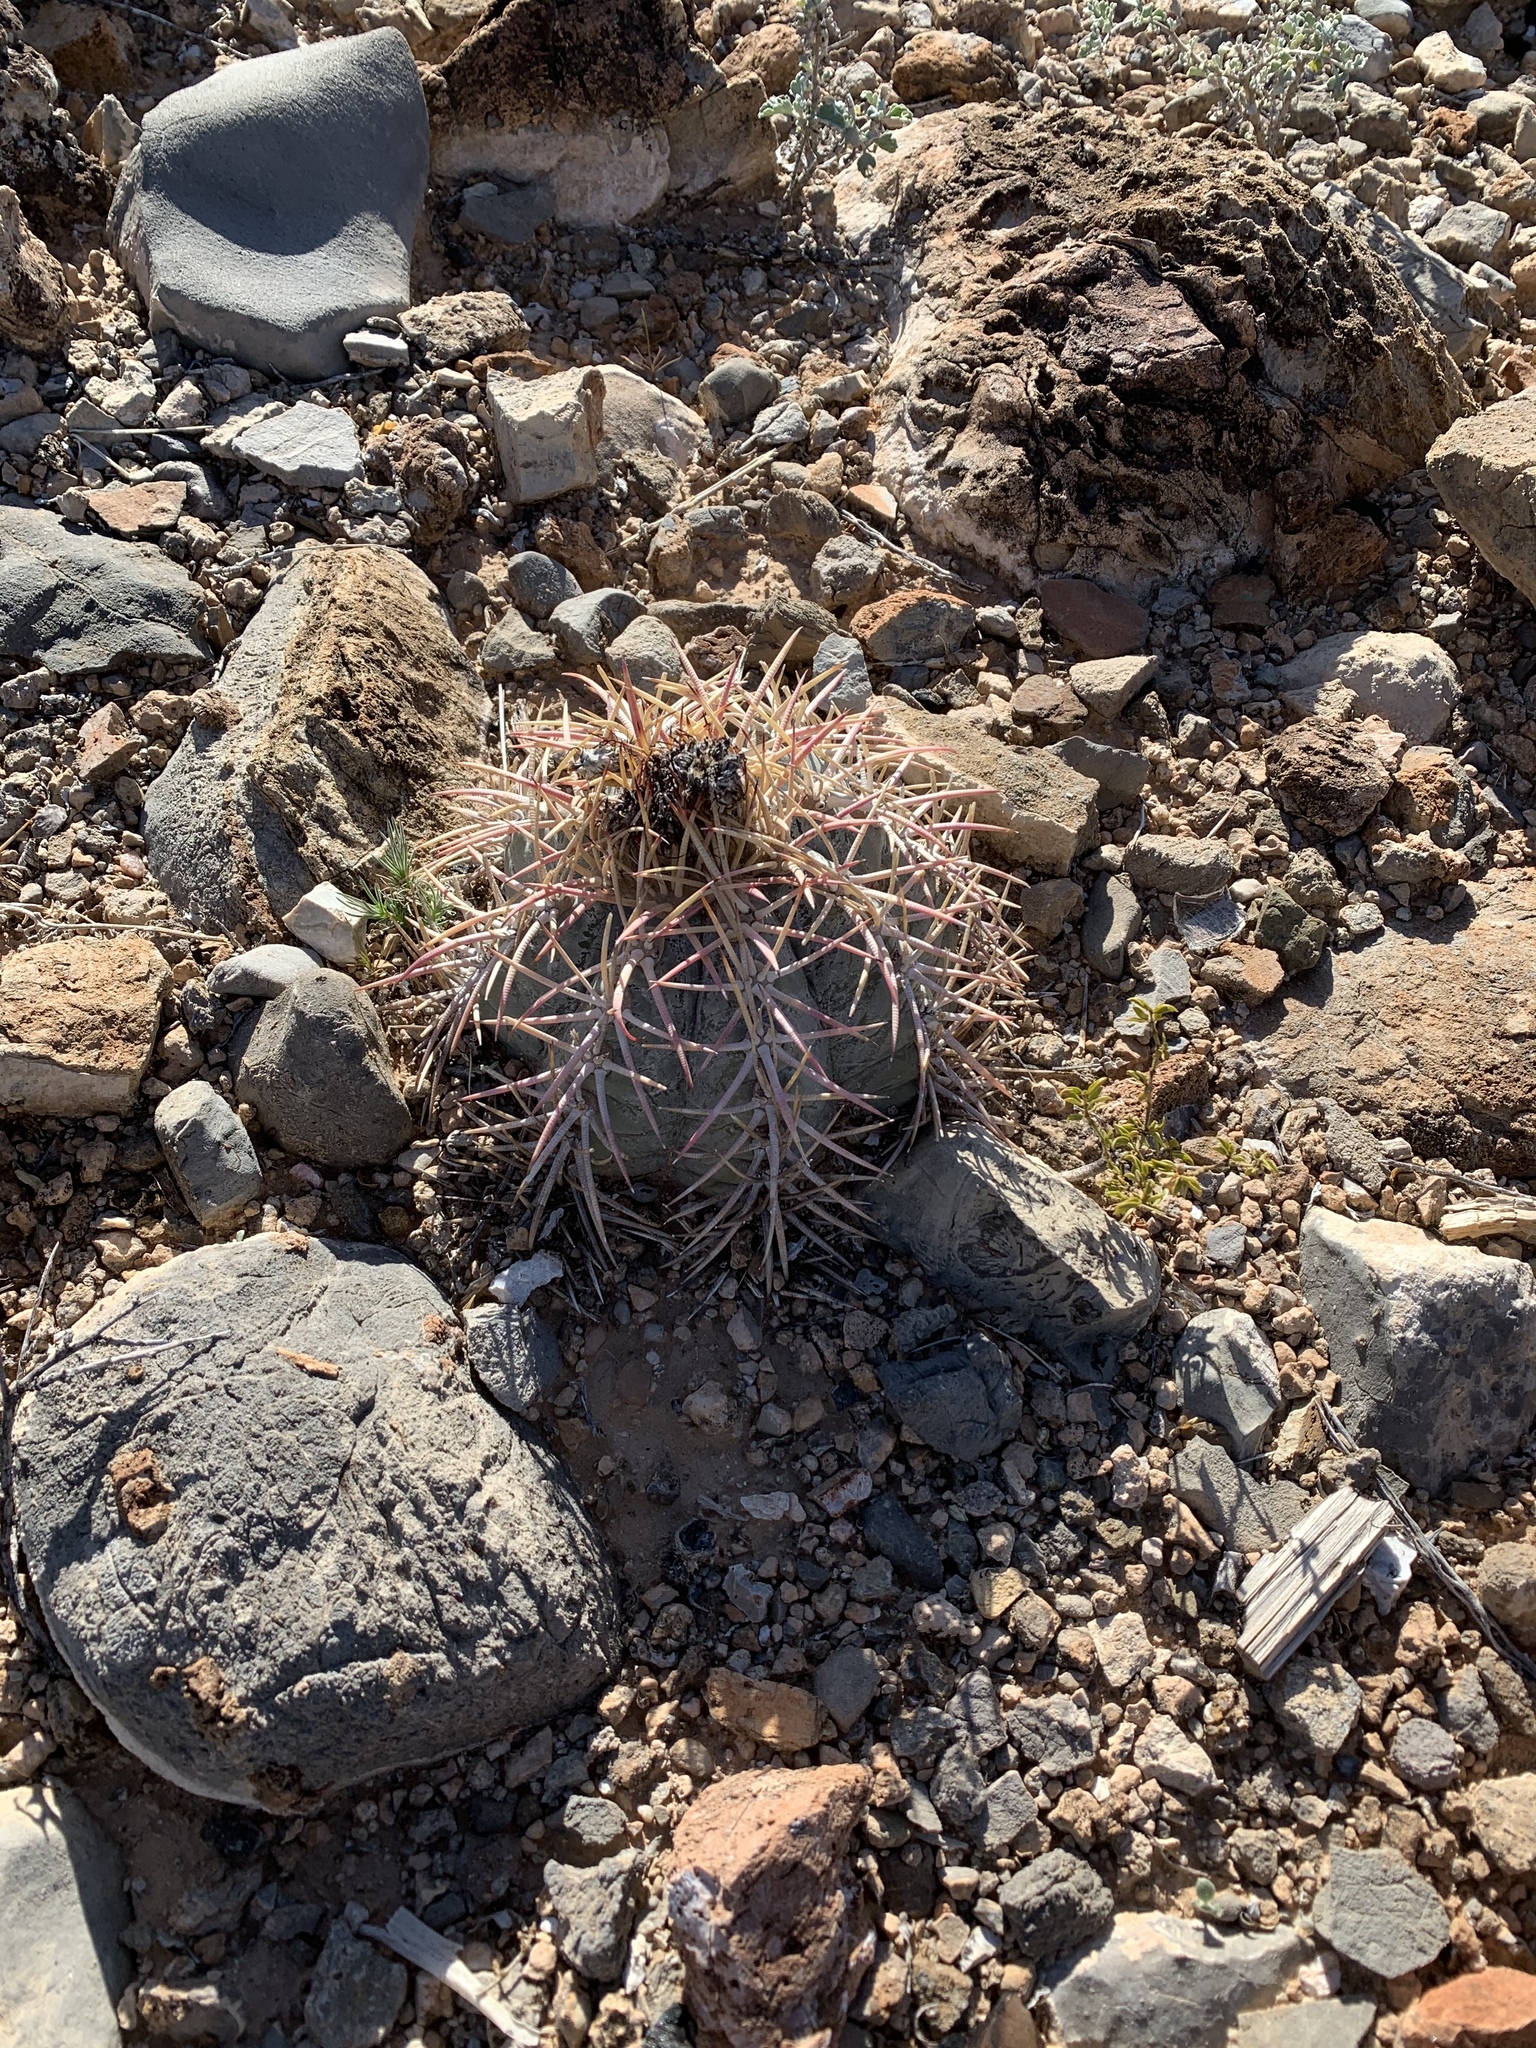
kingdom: Plantae
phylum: Tracheophyta
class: Magnoliopsida
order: Caryophyllales
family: Cactaceae
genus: Echinocactus
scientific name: Echinocactus horizonthalonius
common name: Devilshead
